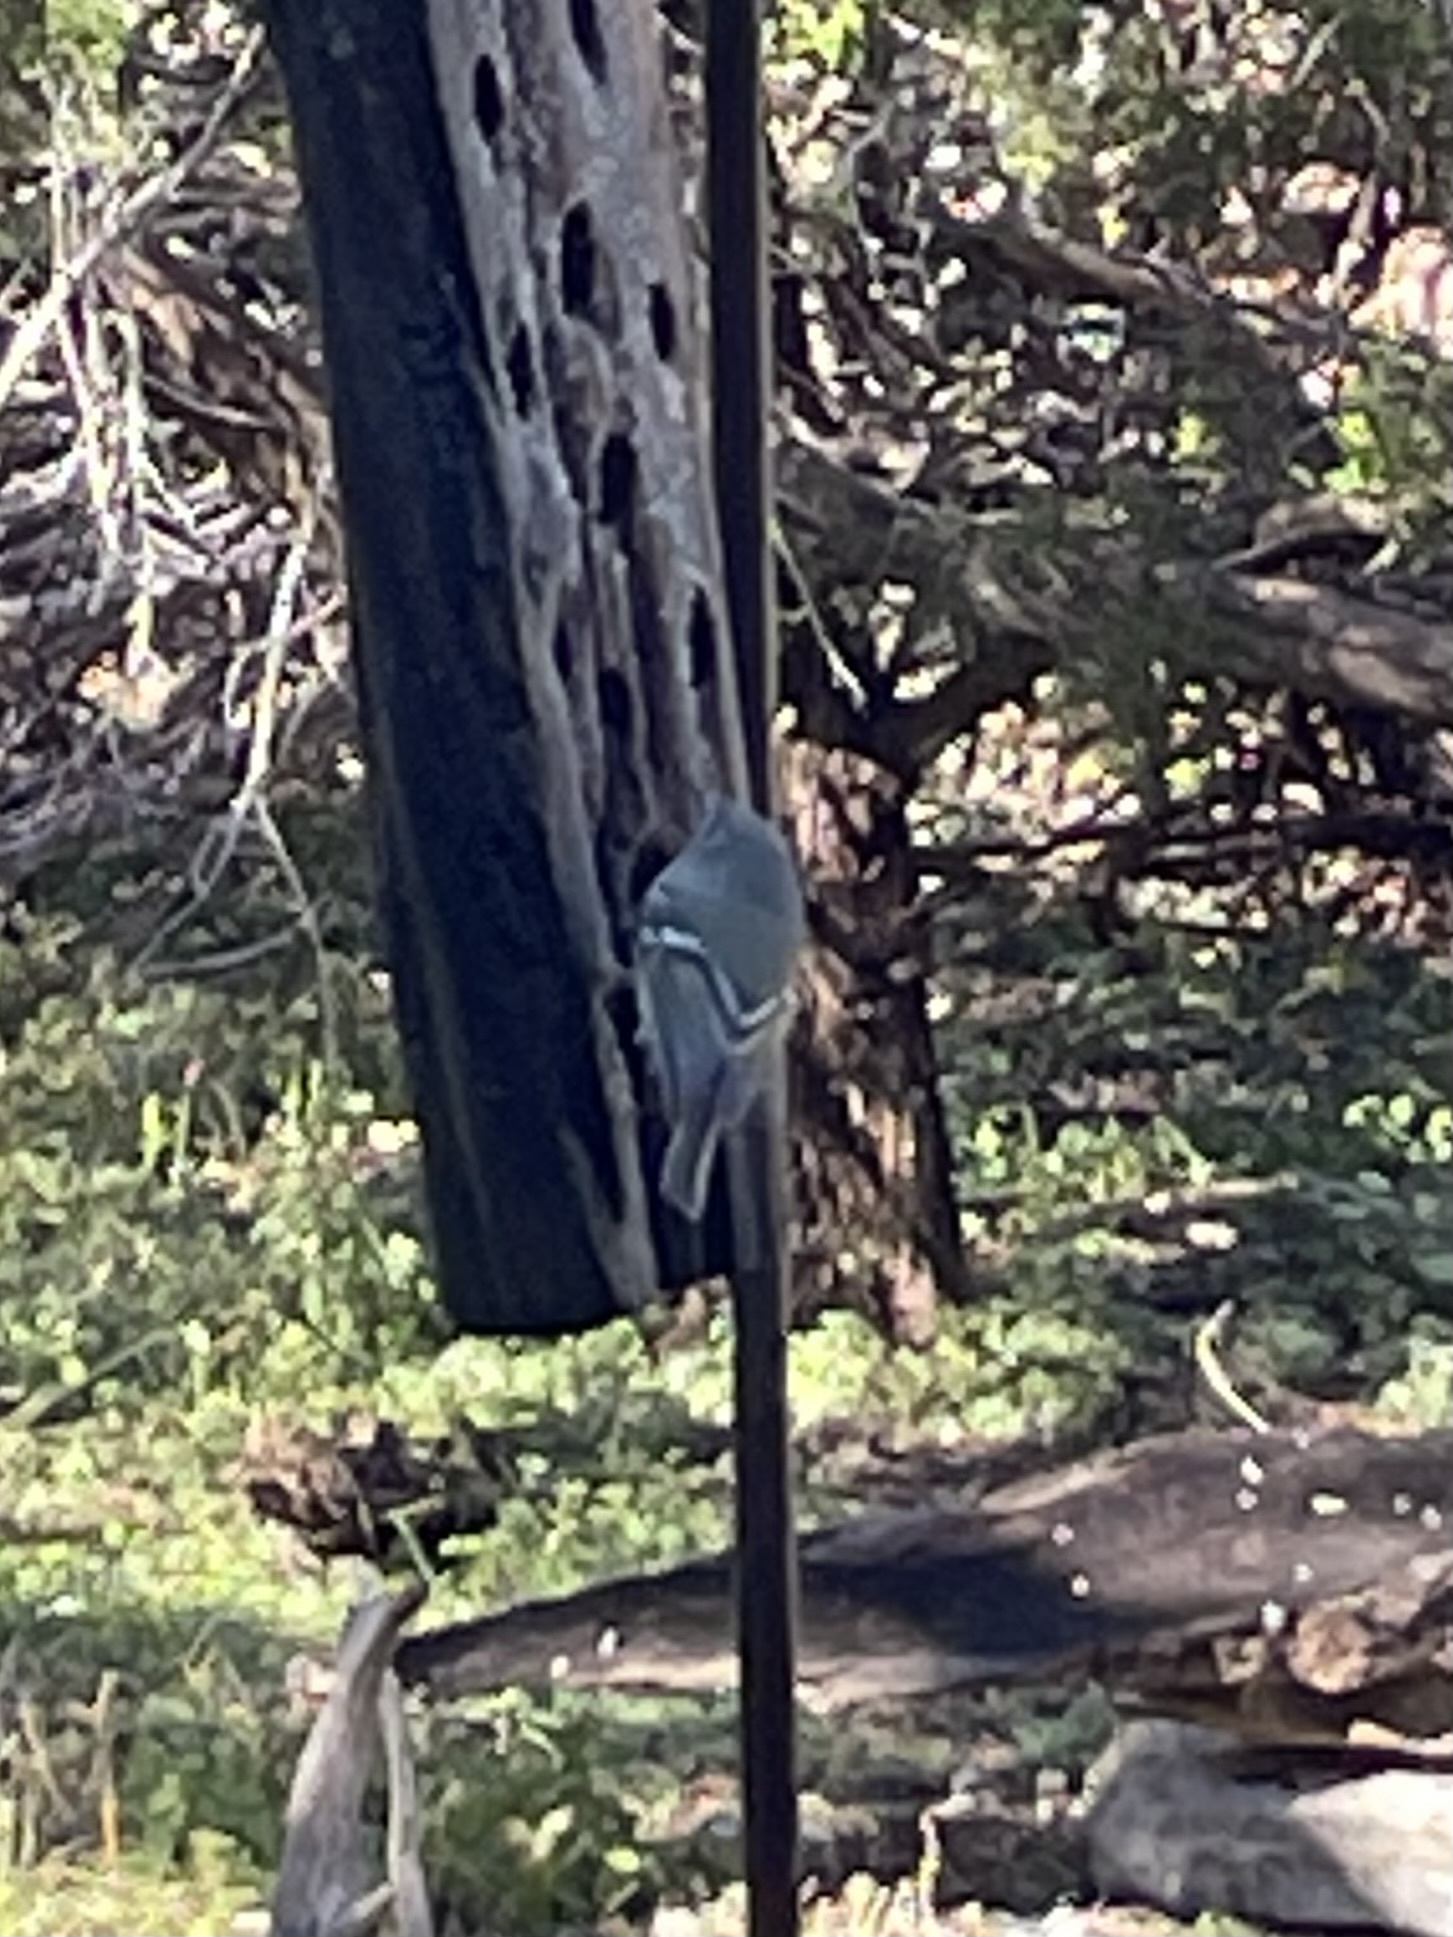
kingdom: Animalia
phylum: Chordata
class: Aves
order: Passeriformes
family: Regulidae
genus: Regulus
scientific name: Regulus calendula
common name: Ruby-crowned kinglet
